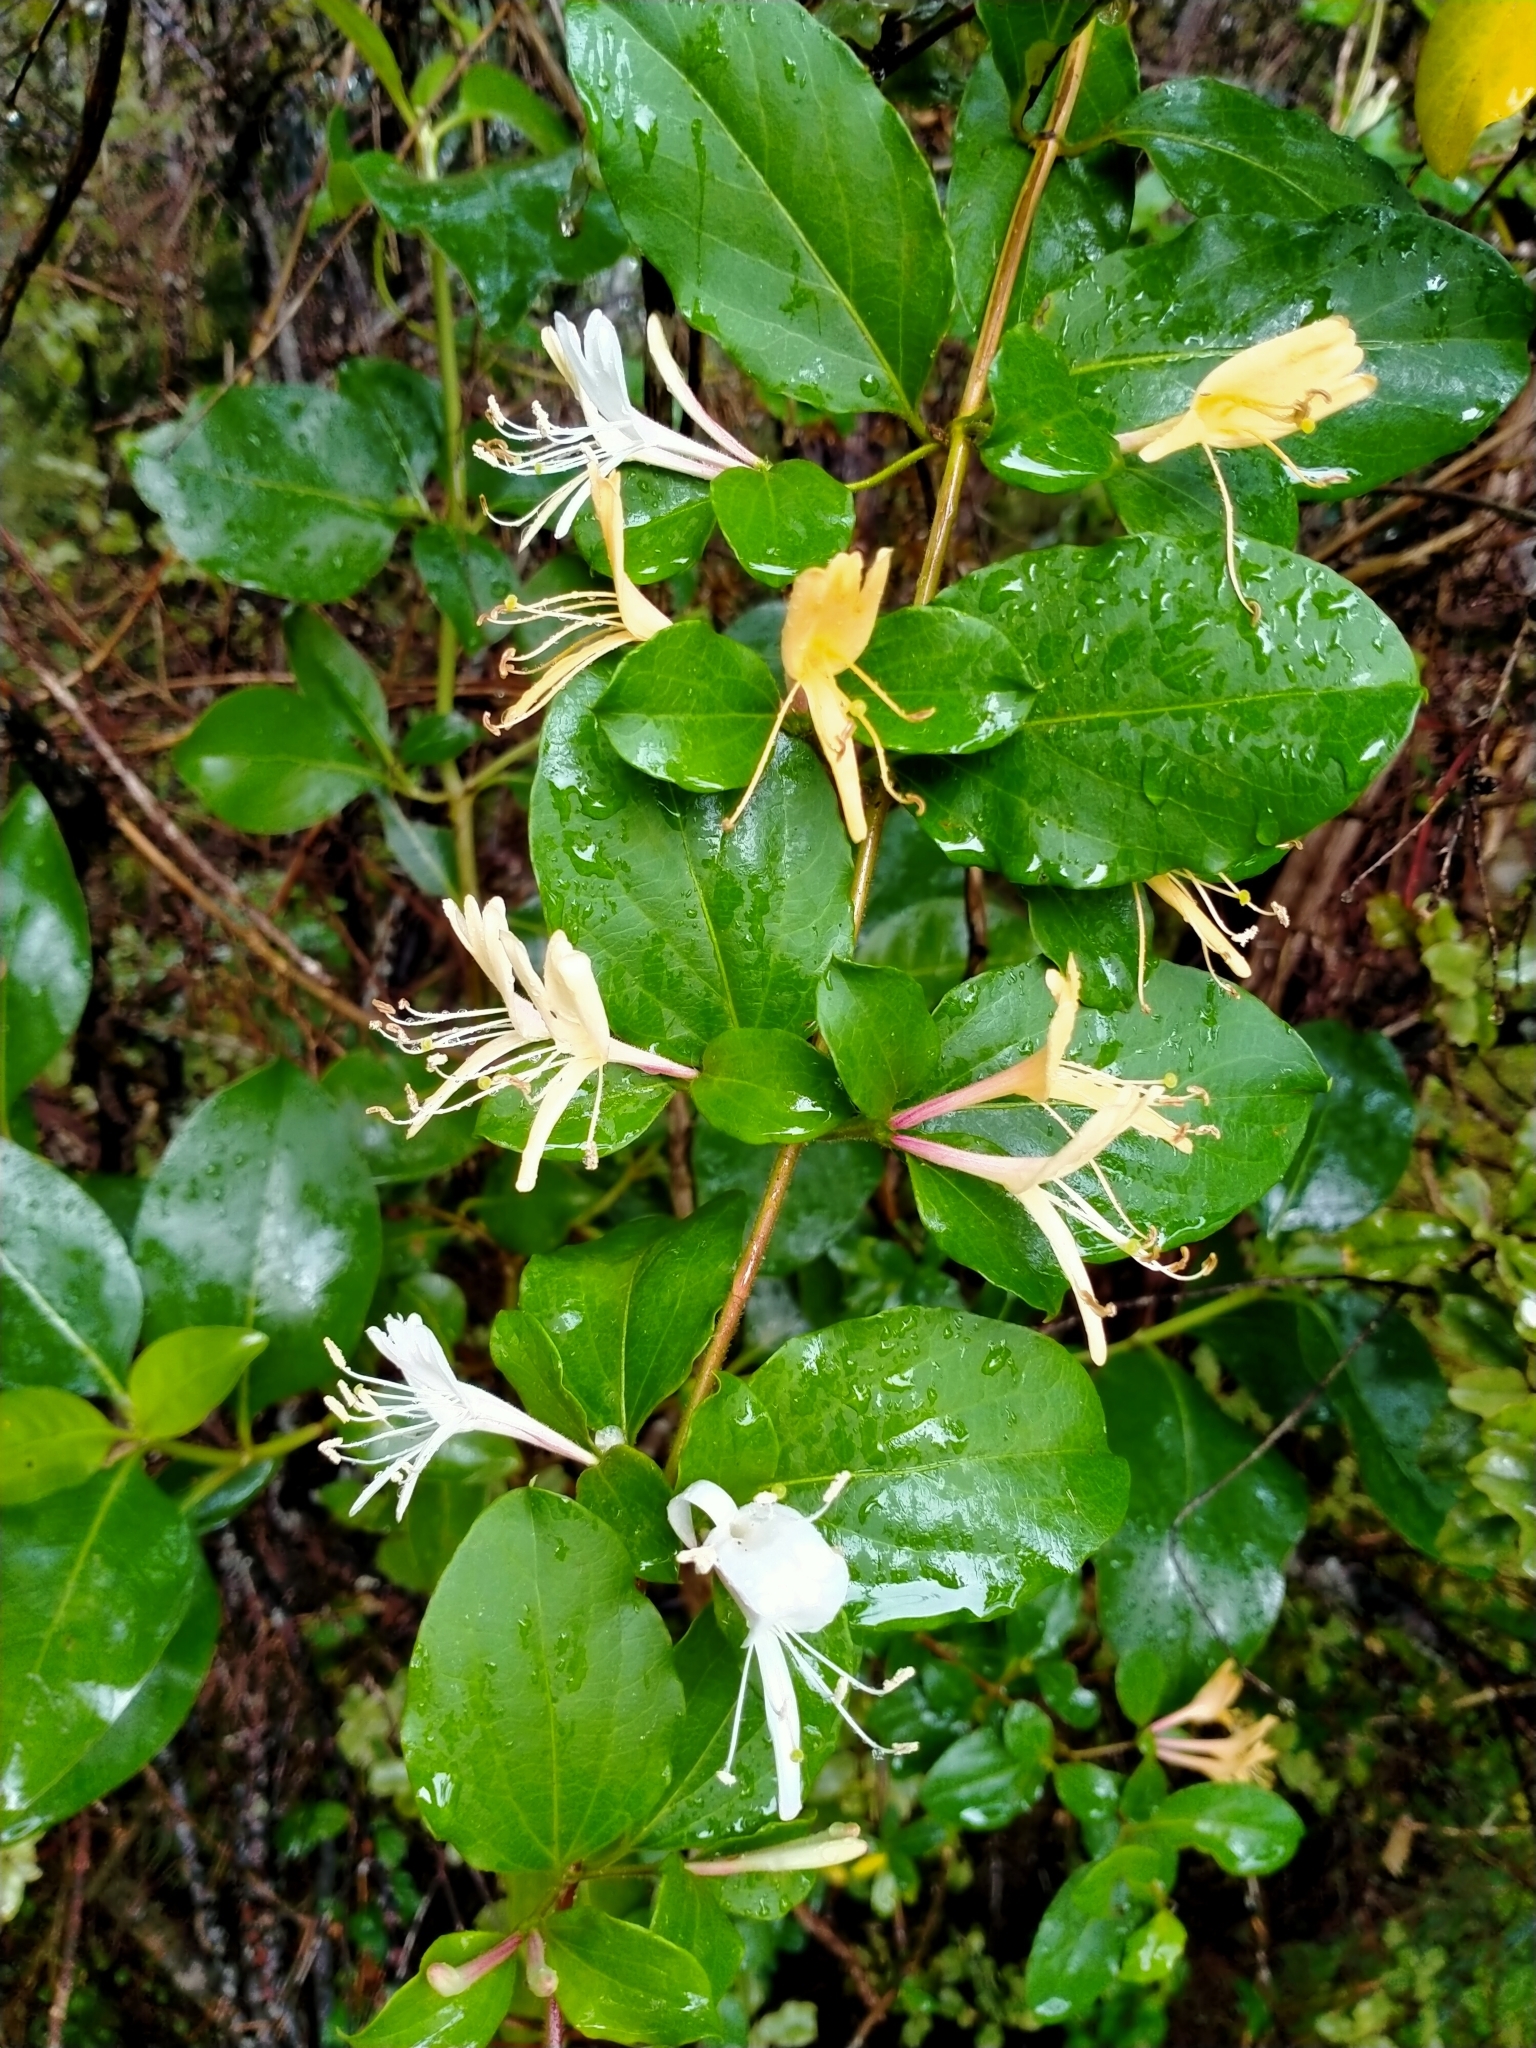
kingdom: Plantae
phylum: Tracheophyta
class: Magnoliopsida
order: Dipsacales
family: Caprifoliaceae
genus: Lonicera
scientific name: Lonicera japonica
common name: Japanese honeysuckle
